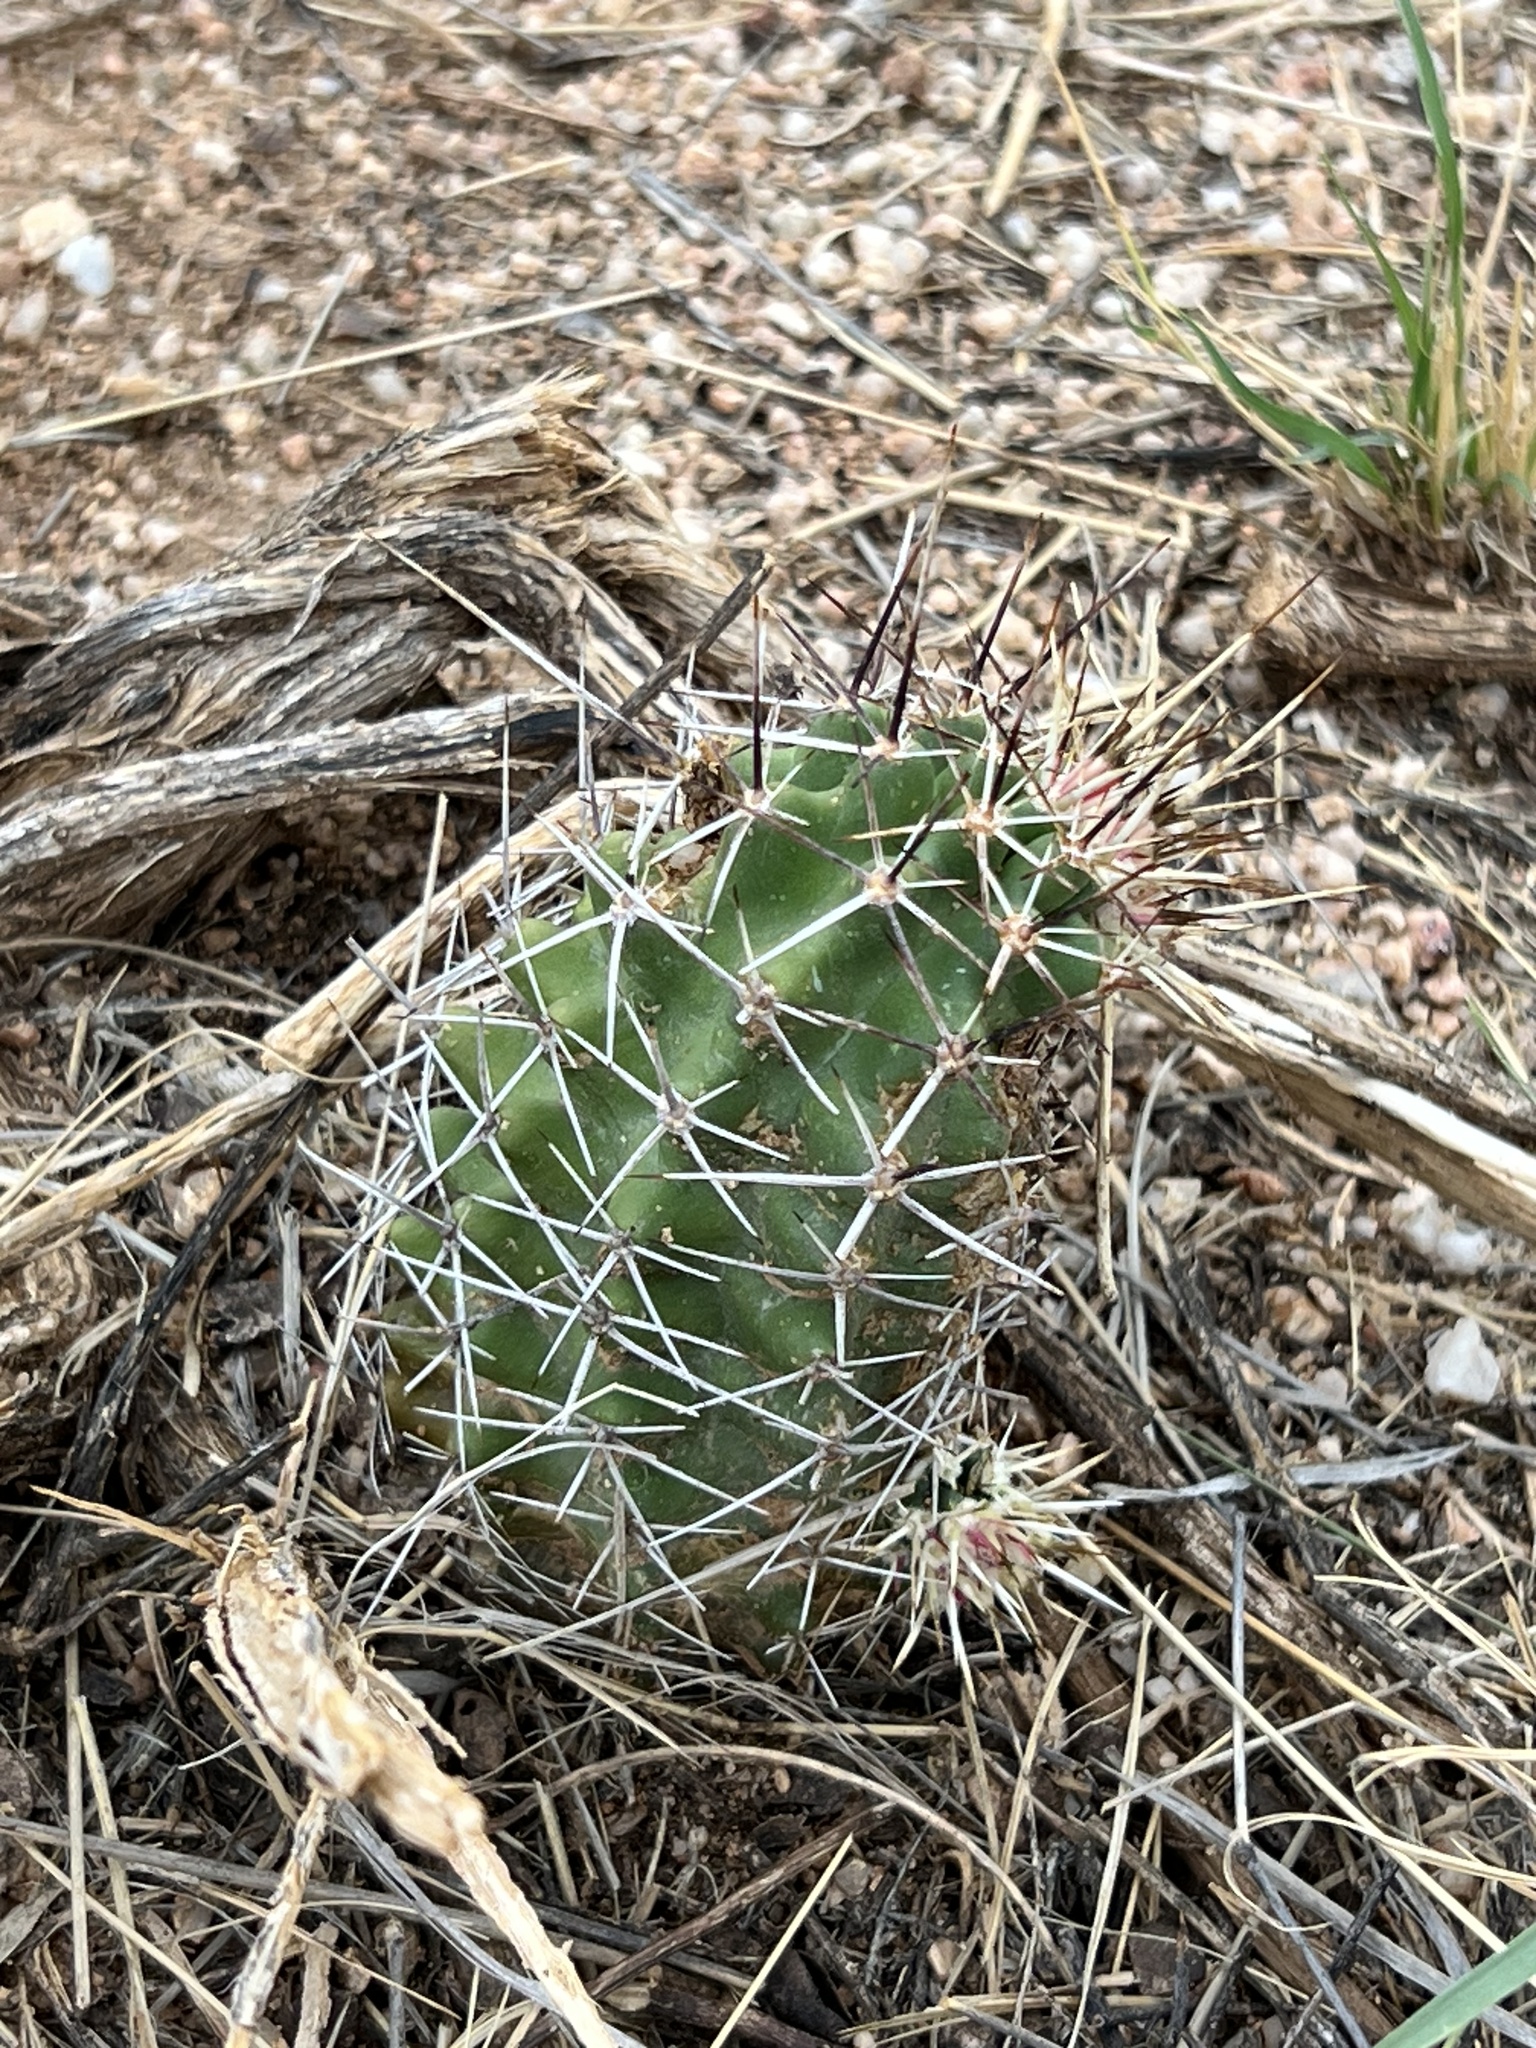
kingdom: Plantae
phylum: Tracheophyta
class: Magnoliopsida
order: Caryophyllales
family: Cactaceae
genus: Echinocereus
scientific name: Echinocereus fendleri
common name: Fendler's hedgehog cactus
